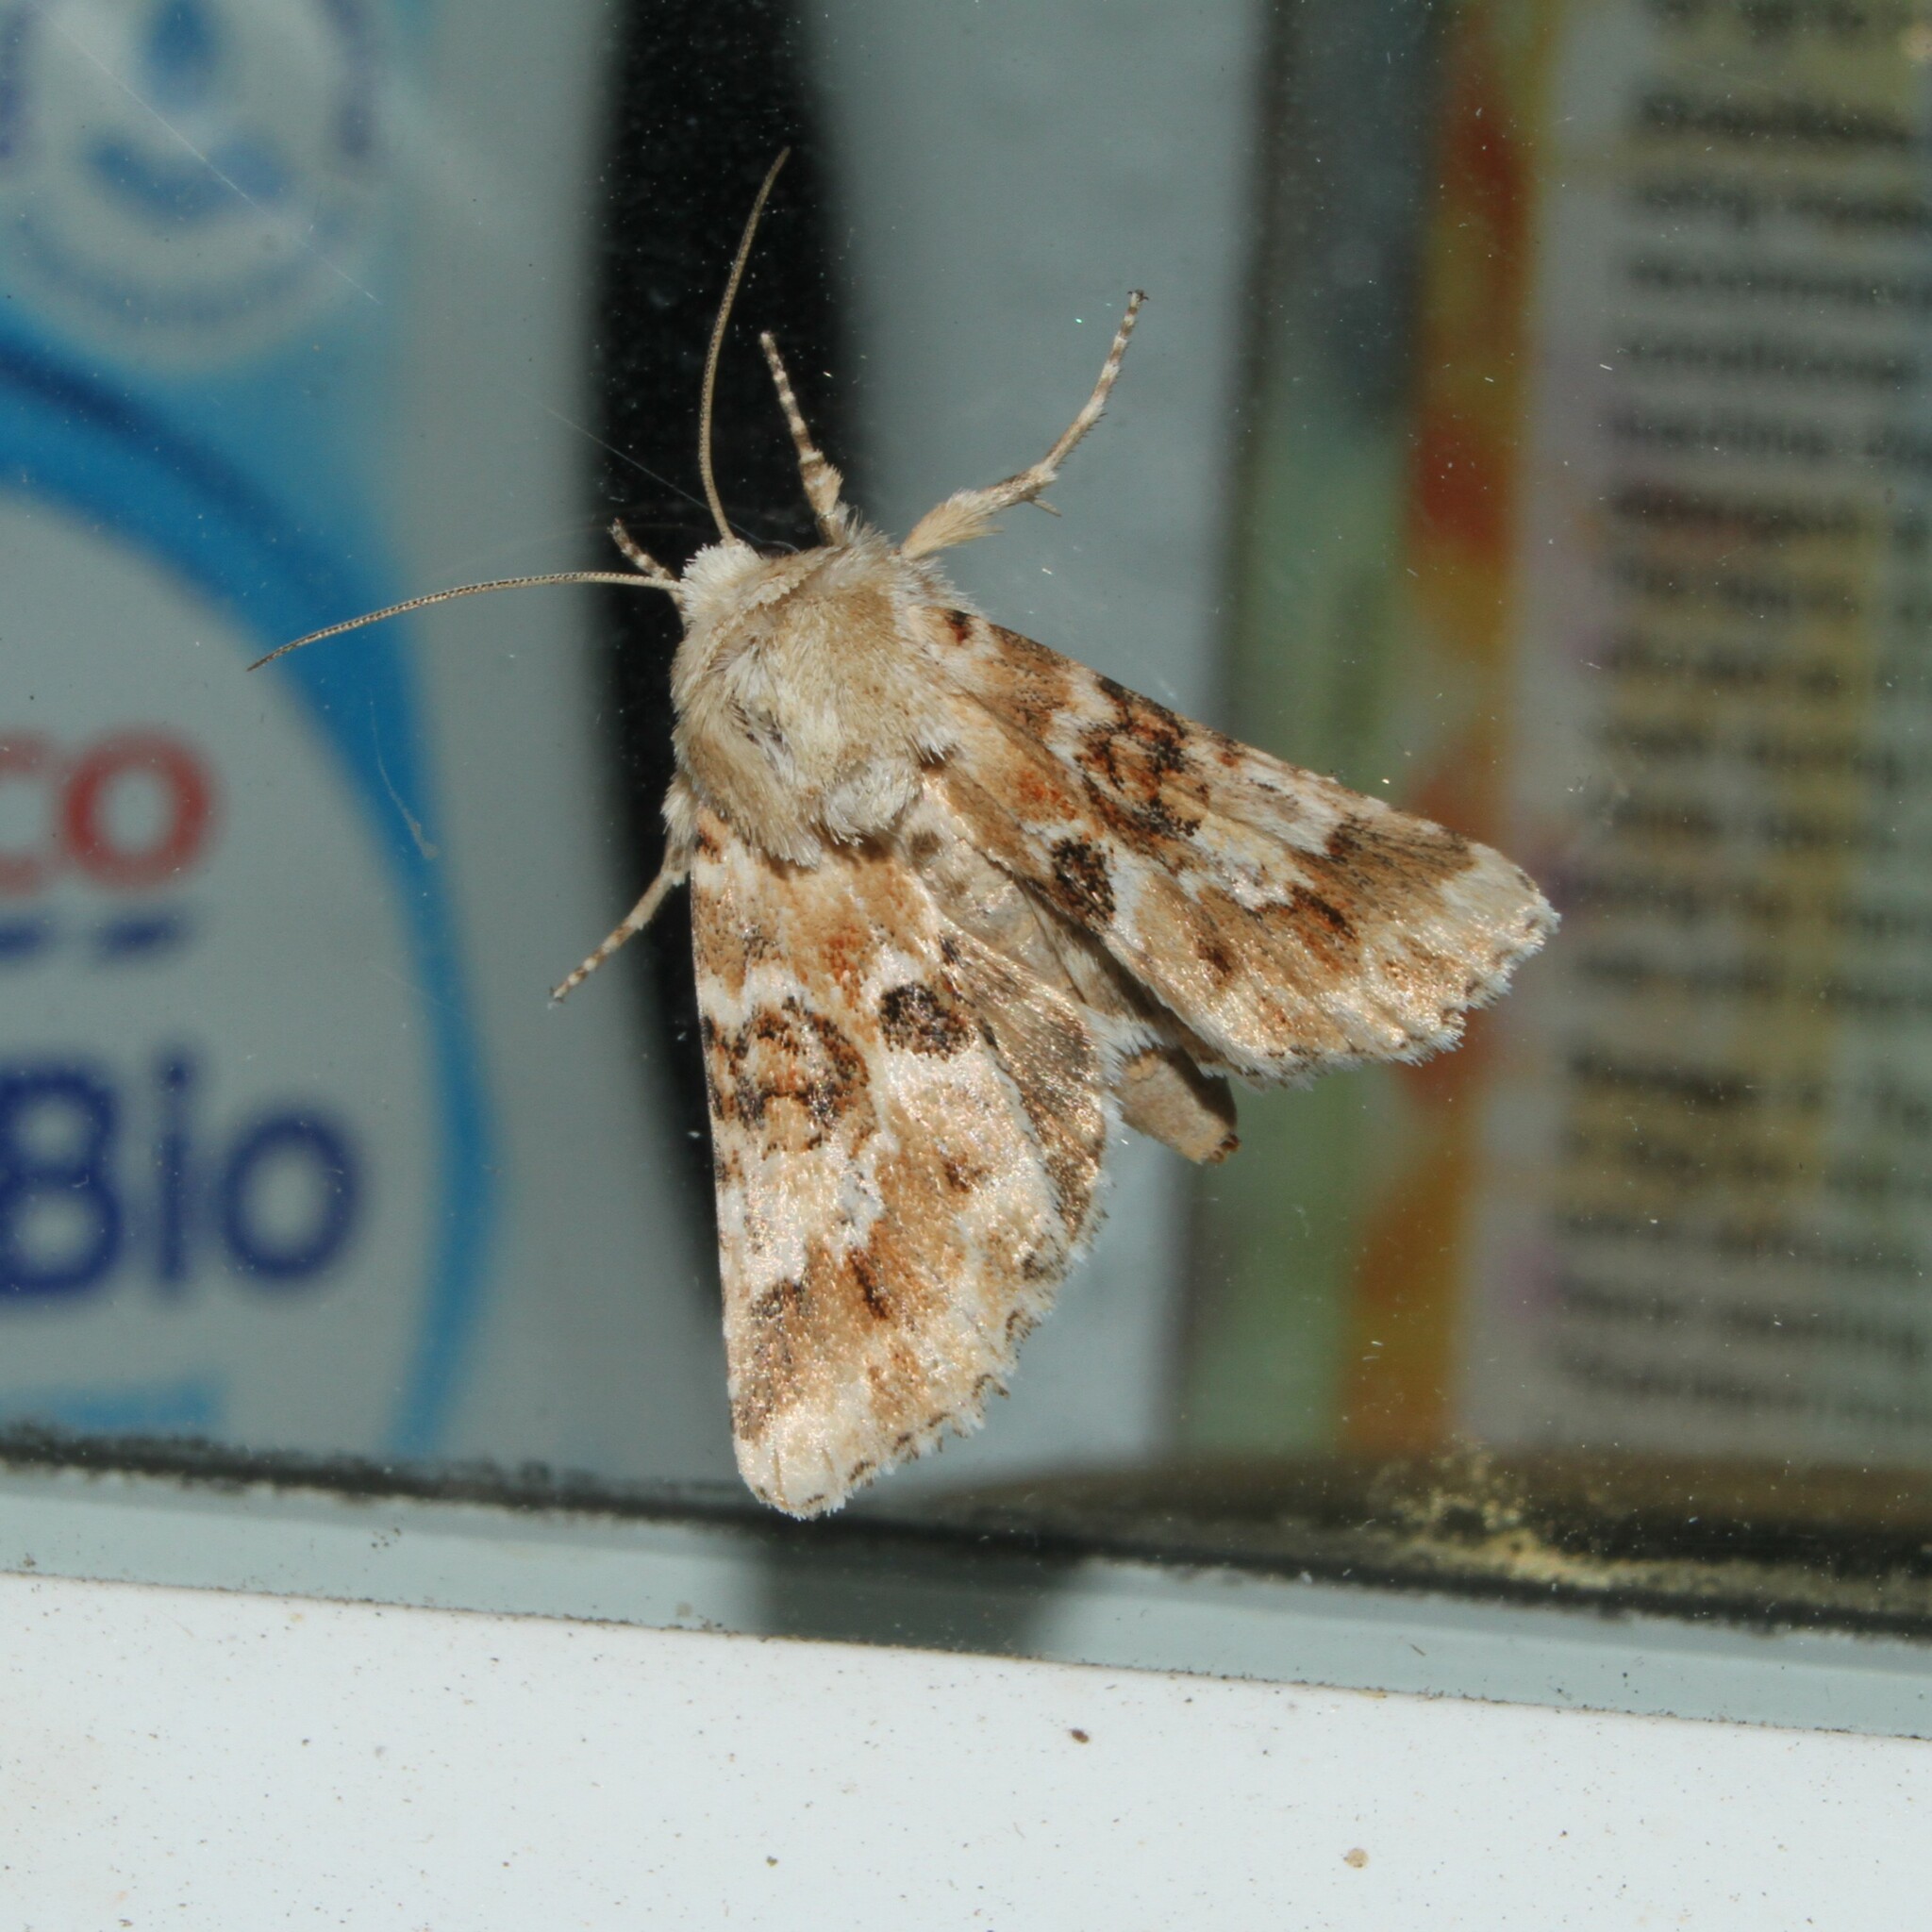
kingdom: Animalia
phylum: Arthropoda
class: Insecta
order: Lepidoptera
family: Noctuidae
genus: Eremobia
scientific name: Eremobia ochroleuca
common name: Dusky sallow
